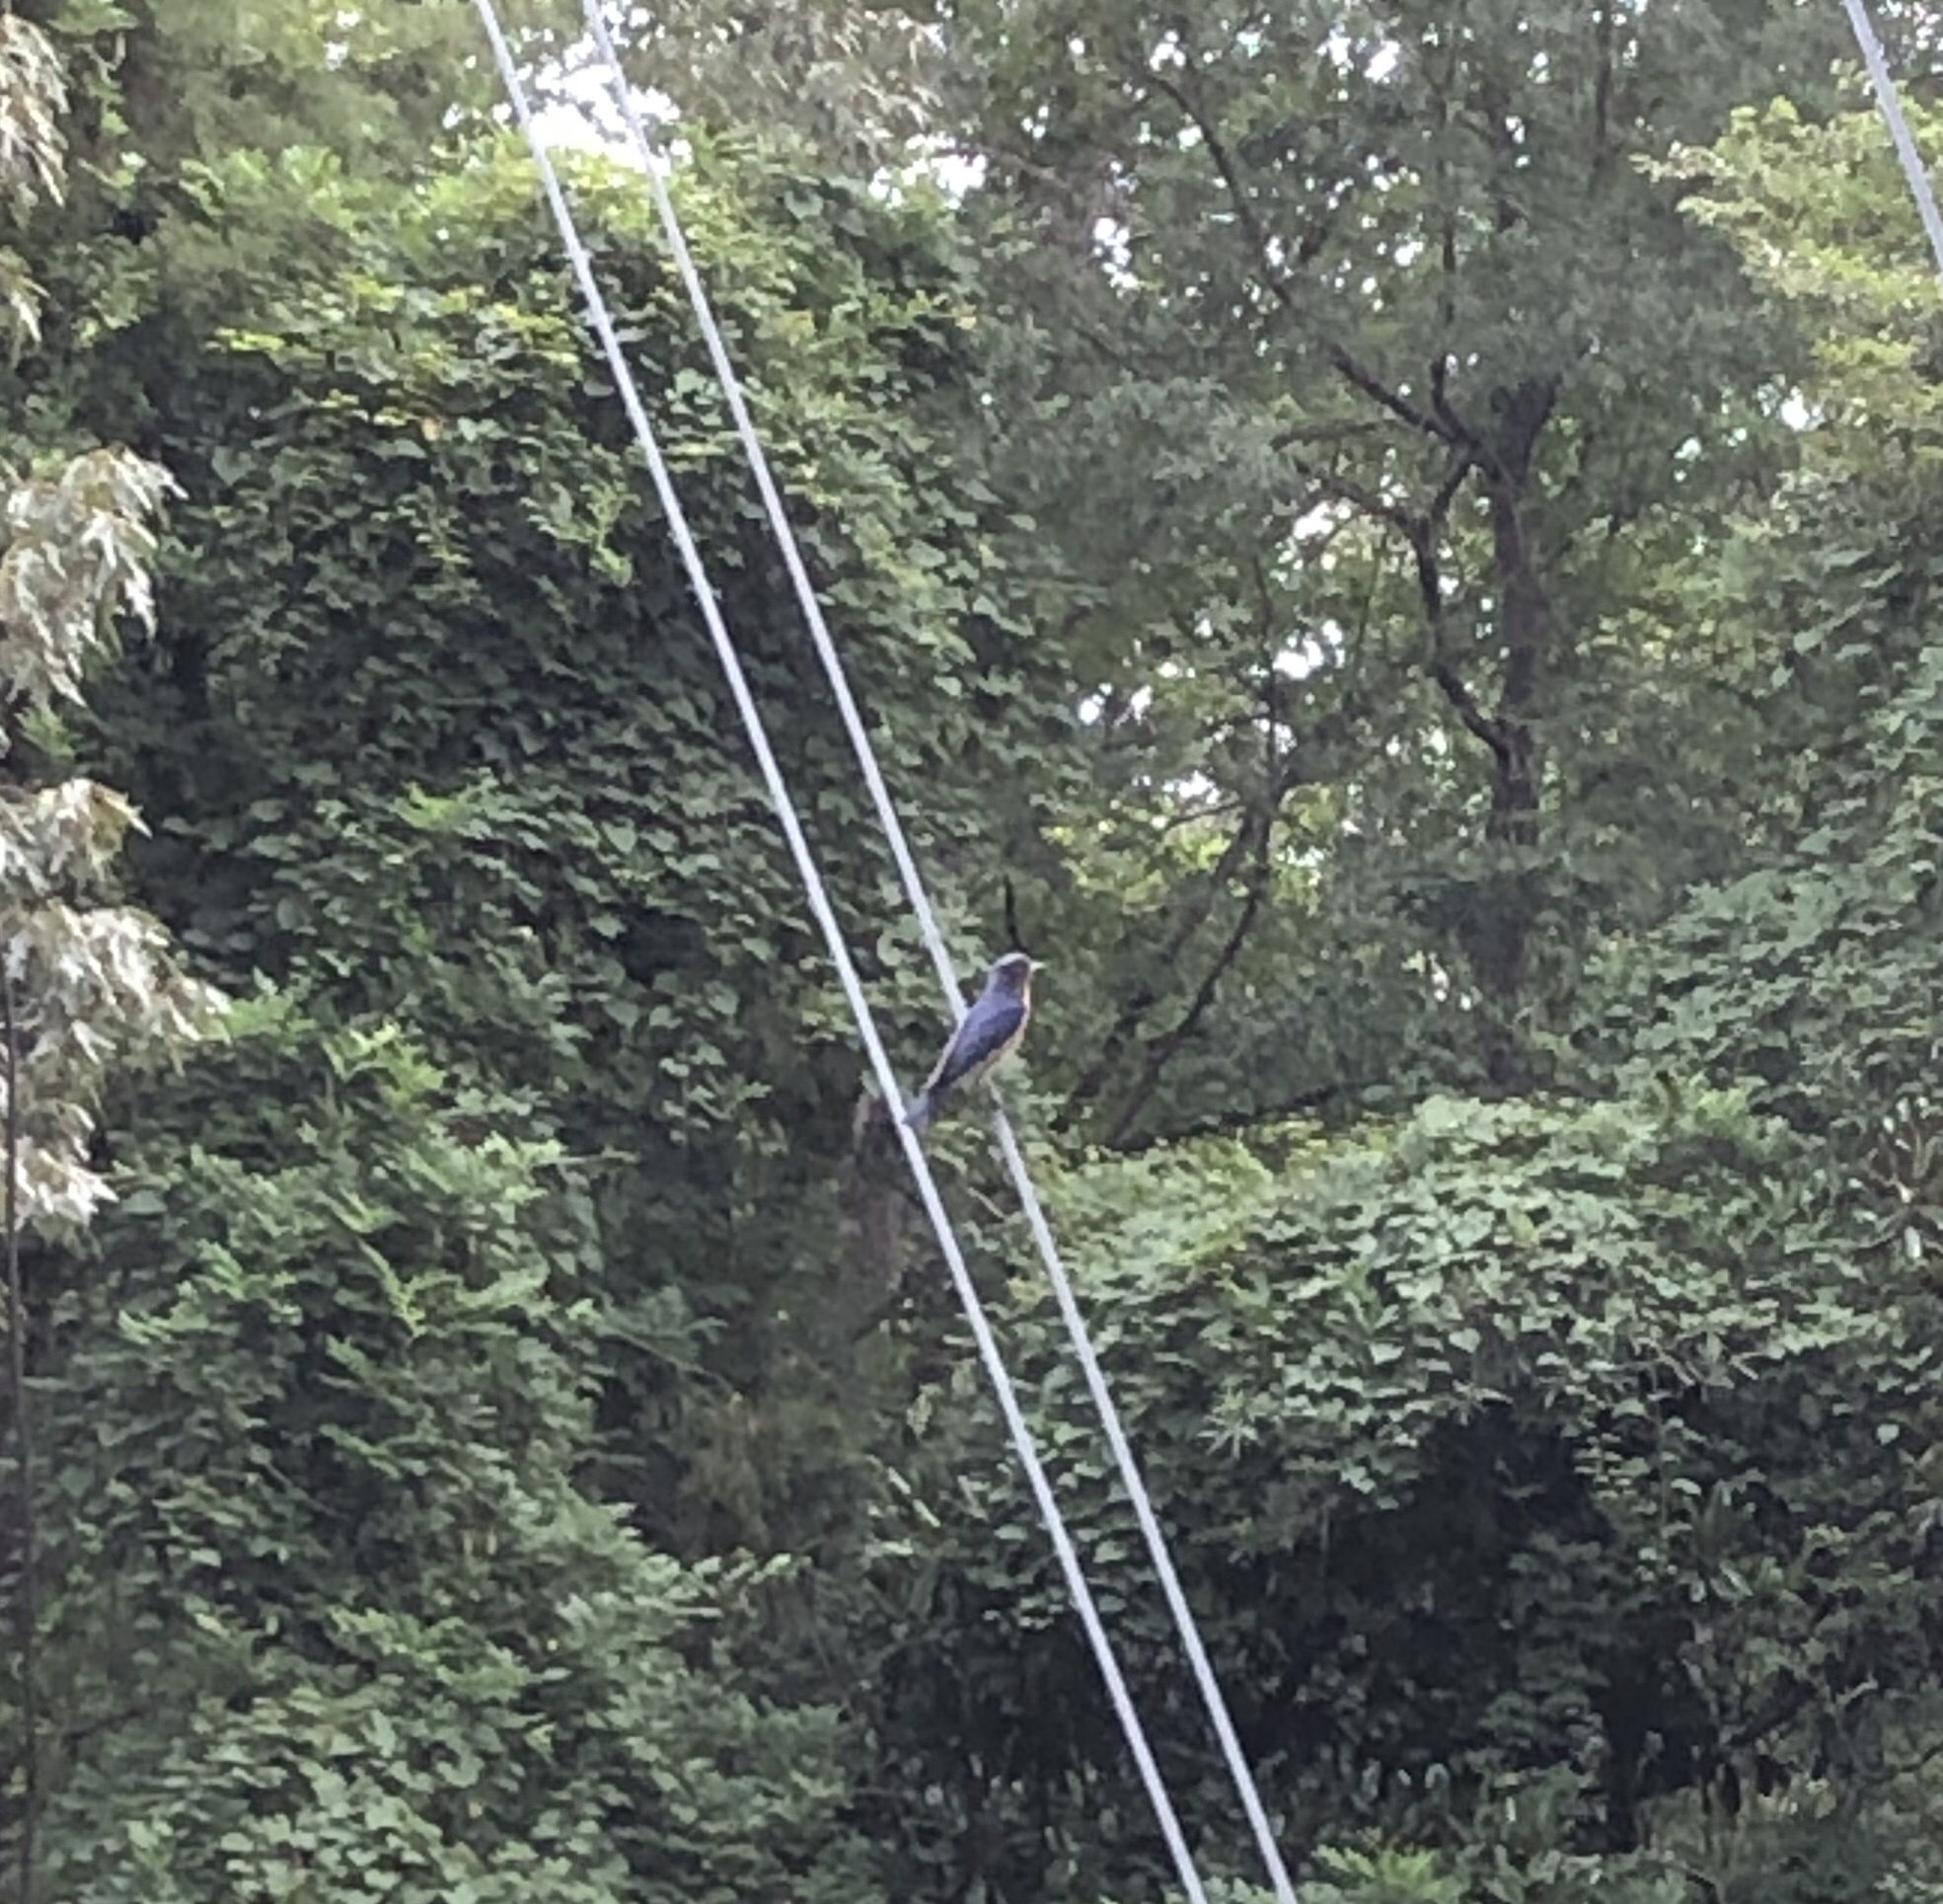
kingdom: Animalia
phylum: Chordata
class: Aves
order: Passeriformes
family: Turdidae
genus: Sialia
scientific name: Sialia sialis
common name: Eastern bluebird
